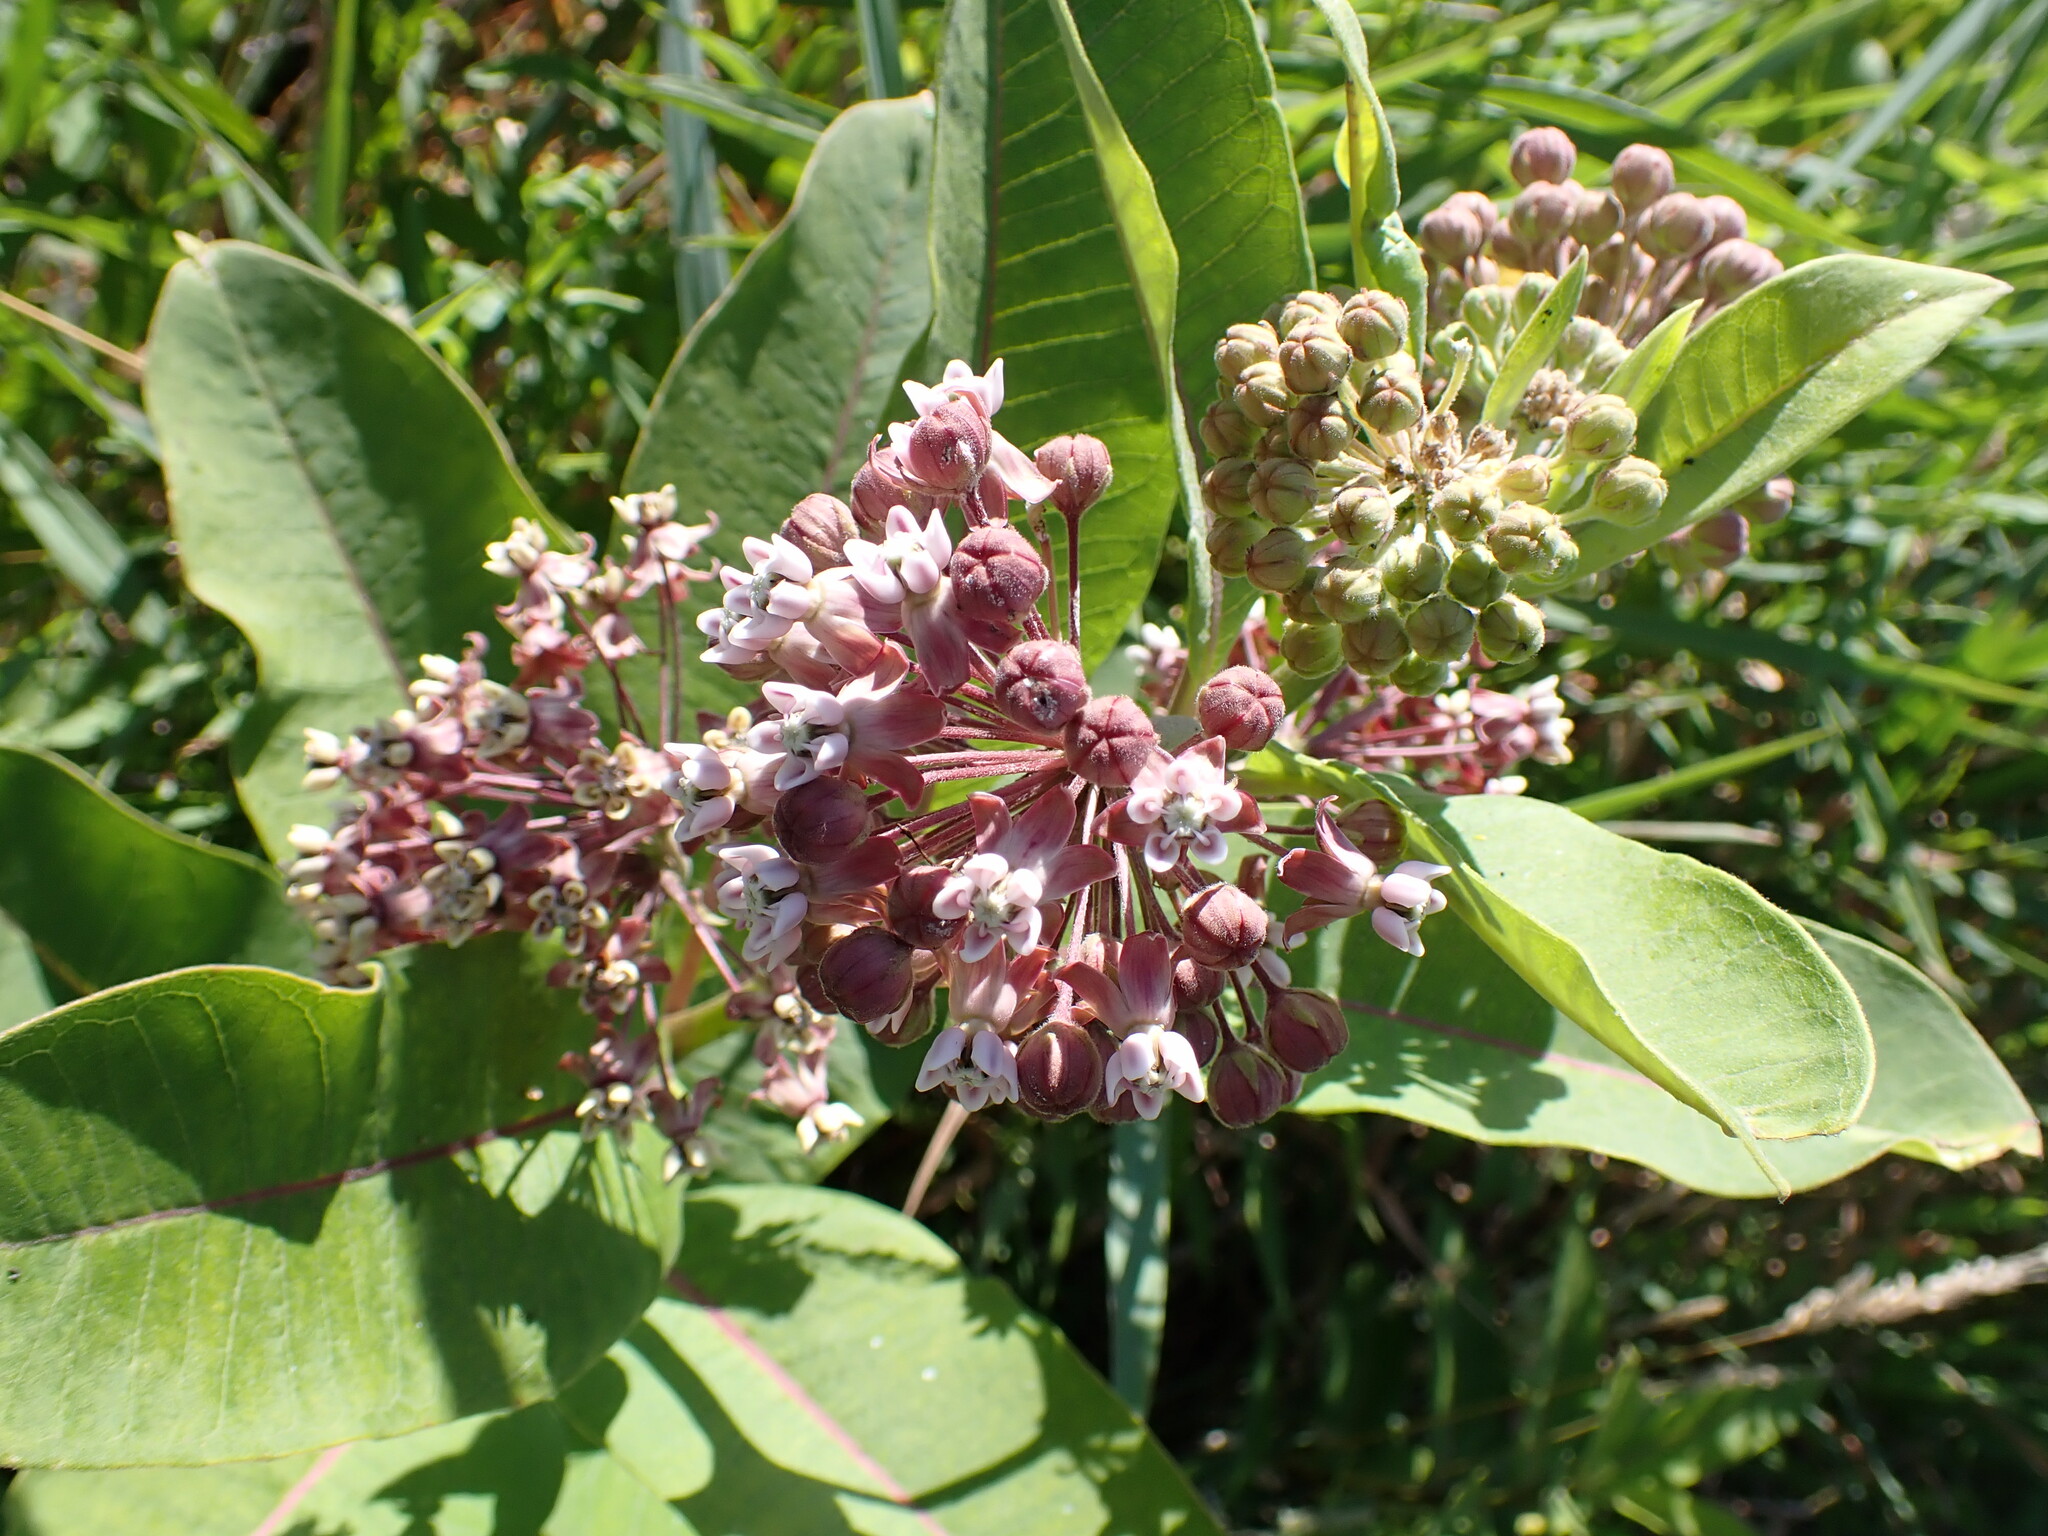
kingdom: Plantae
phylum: Tracheophyta
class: Magnoliopsida
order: Gentianales
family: Apocynaceae
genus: Asclepias
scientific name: Asclepias syriaca
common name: Common milkweed
